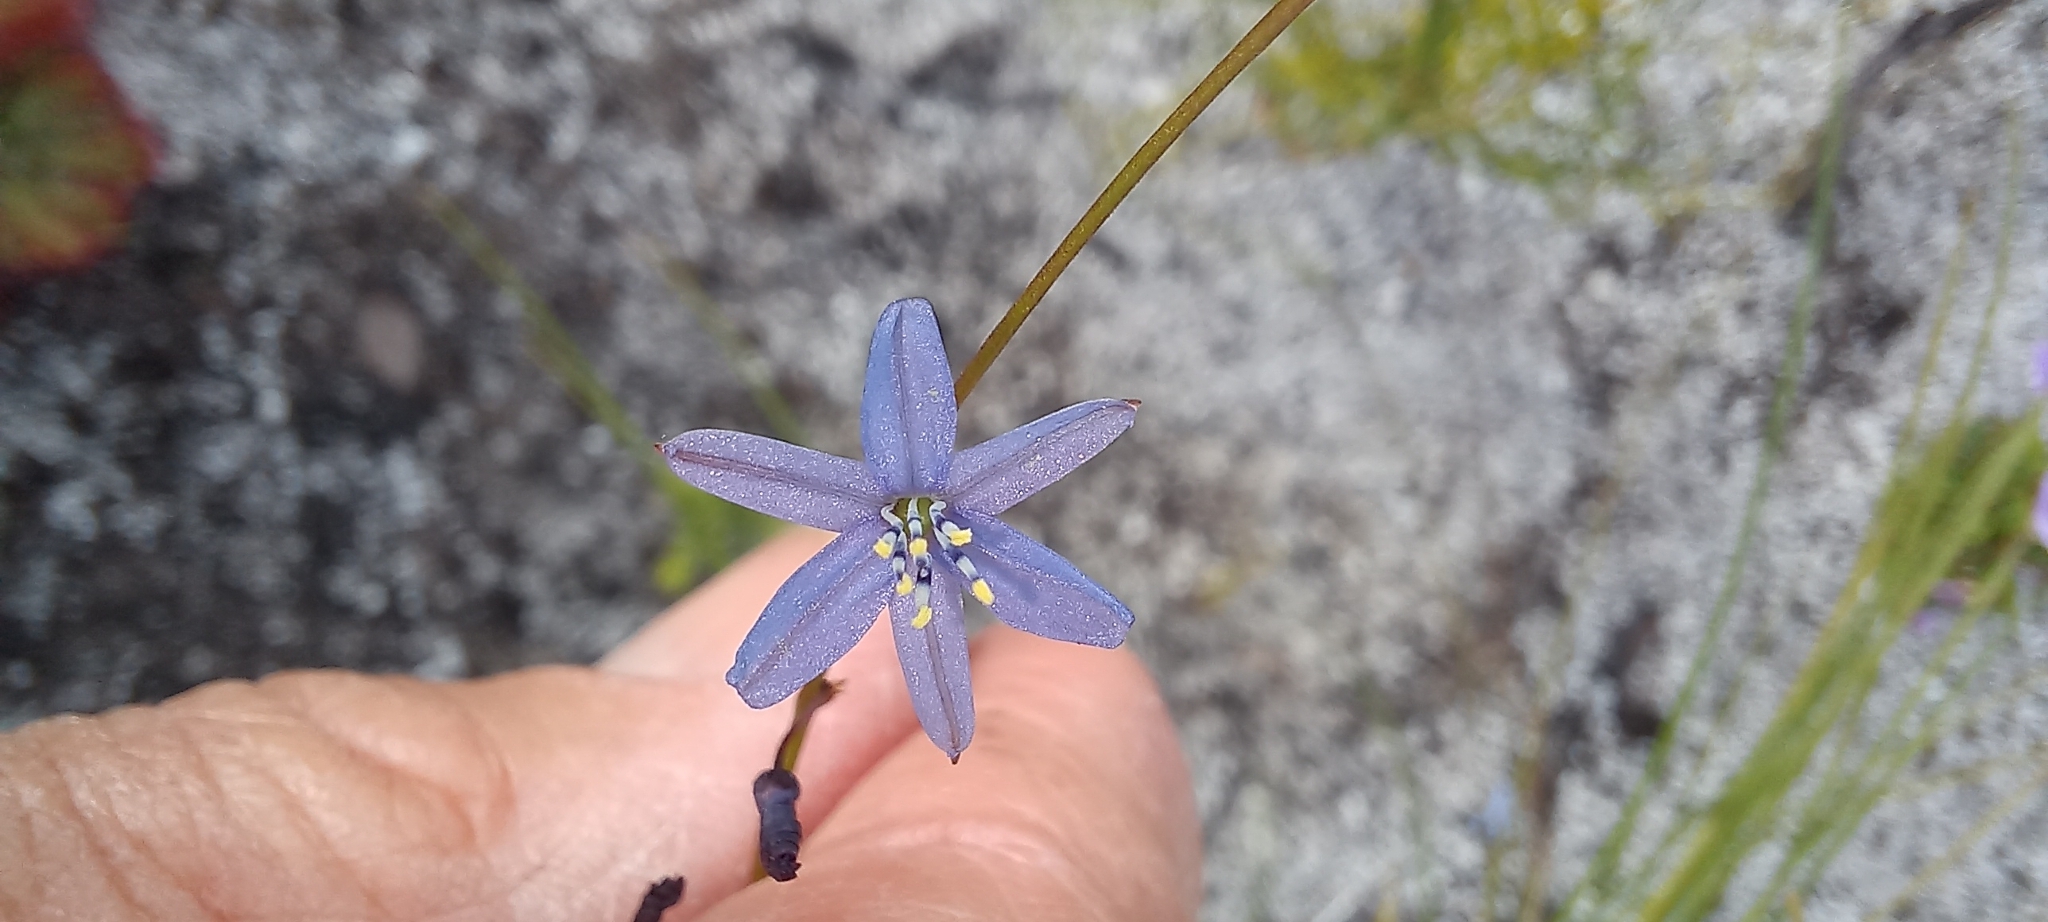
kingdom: Plantae
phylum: Tracheophyta
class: Liliopsida
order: Asparagales
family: Asphodelaceae
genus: Caesia
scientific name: Caesia contorta
